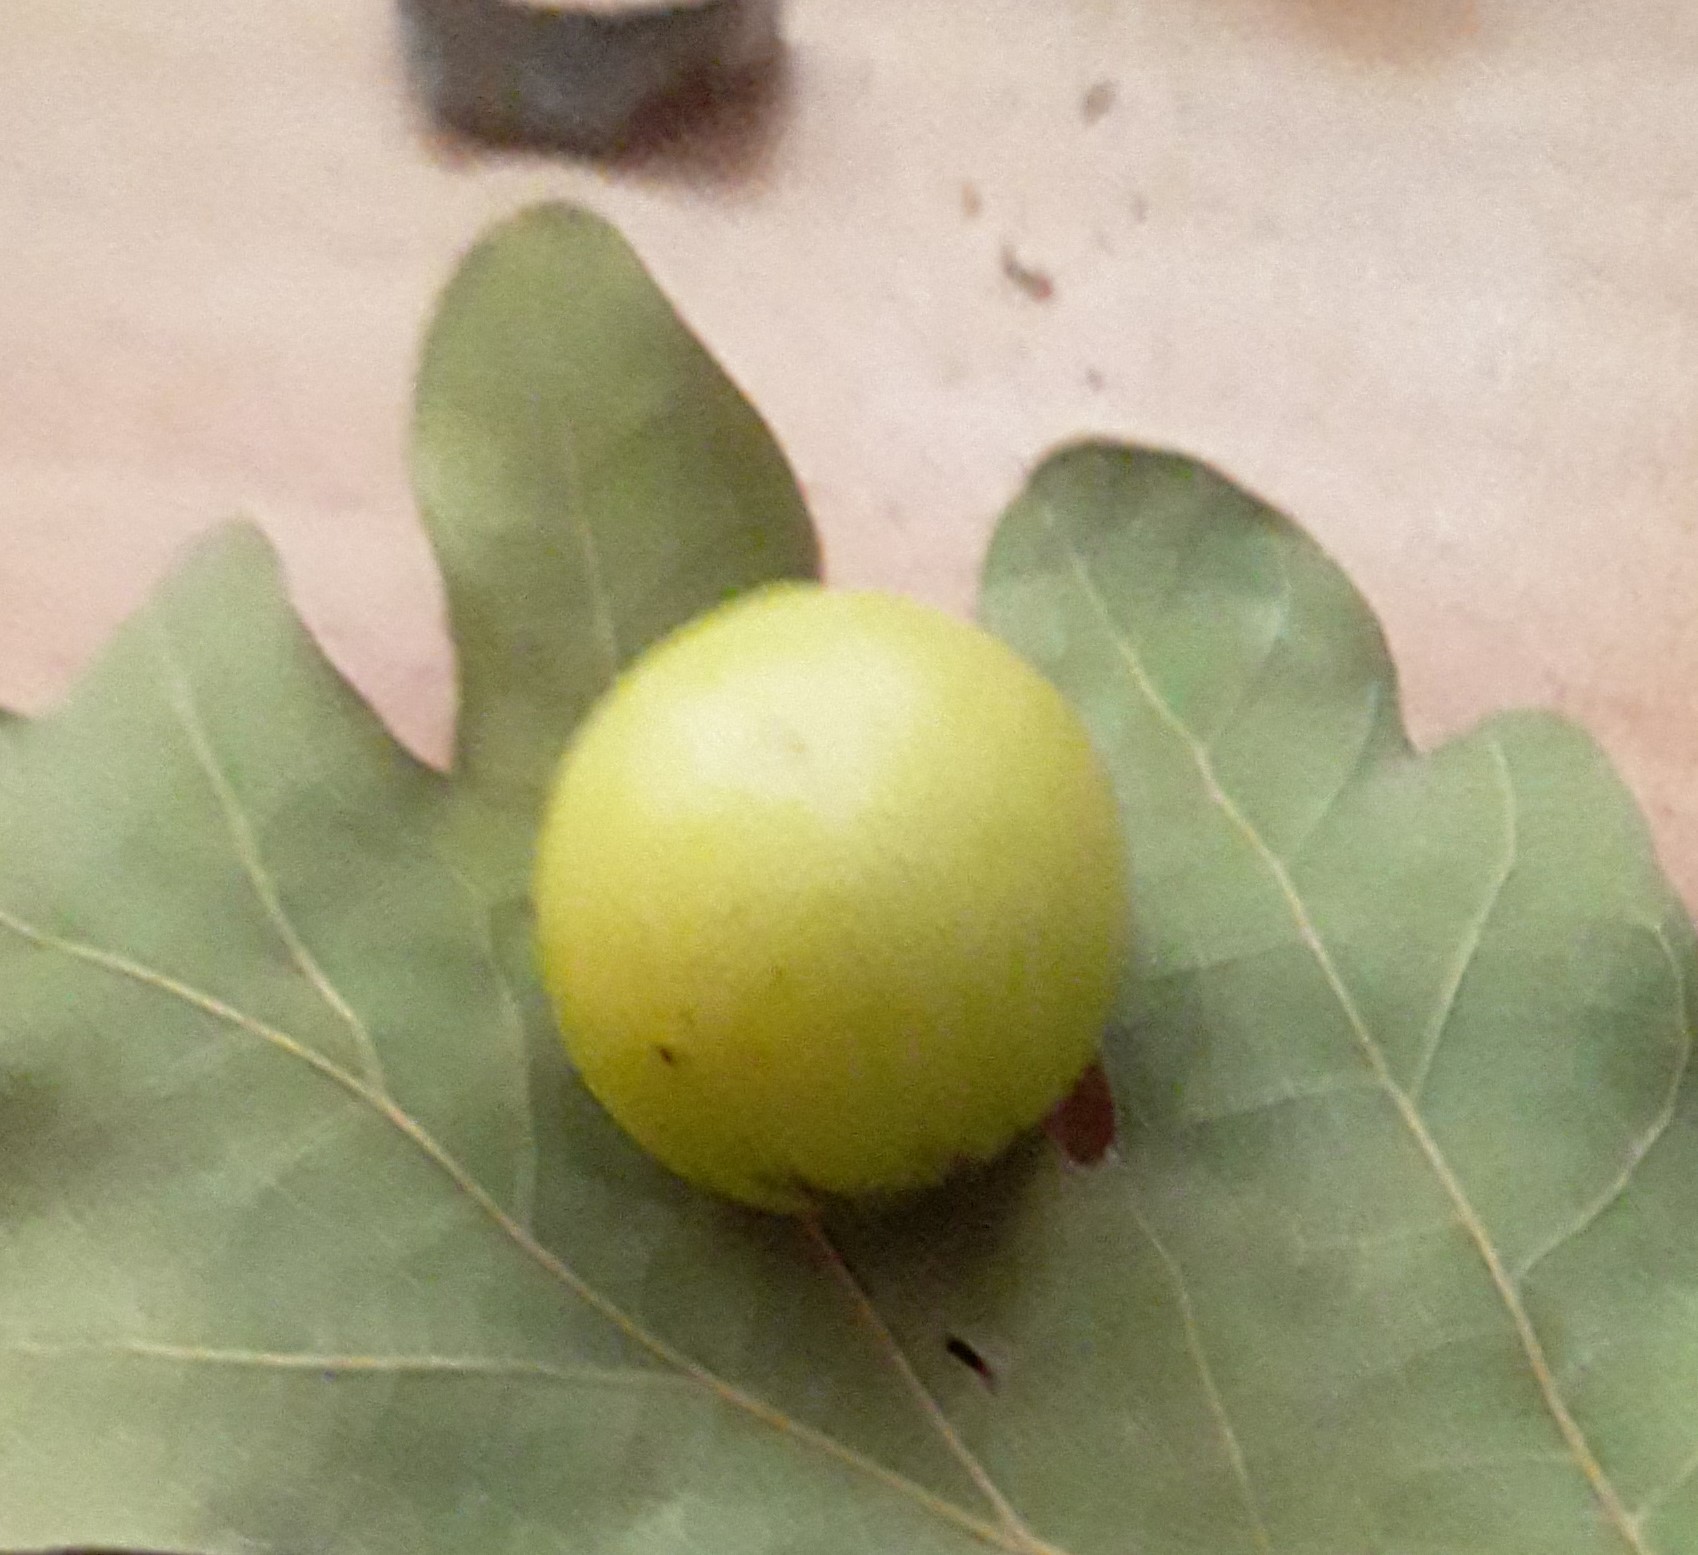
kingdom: Animalia
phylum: Arthropoda
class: Insecta
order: Hymenoptera
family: Cynipidae
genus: Cynips
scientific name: Cynips quercusfolii
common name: Cherry gall
